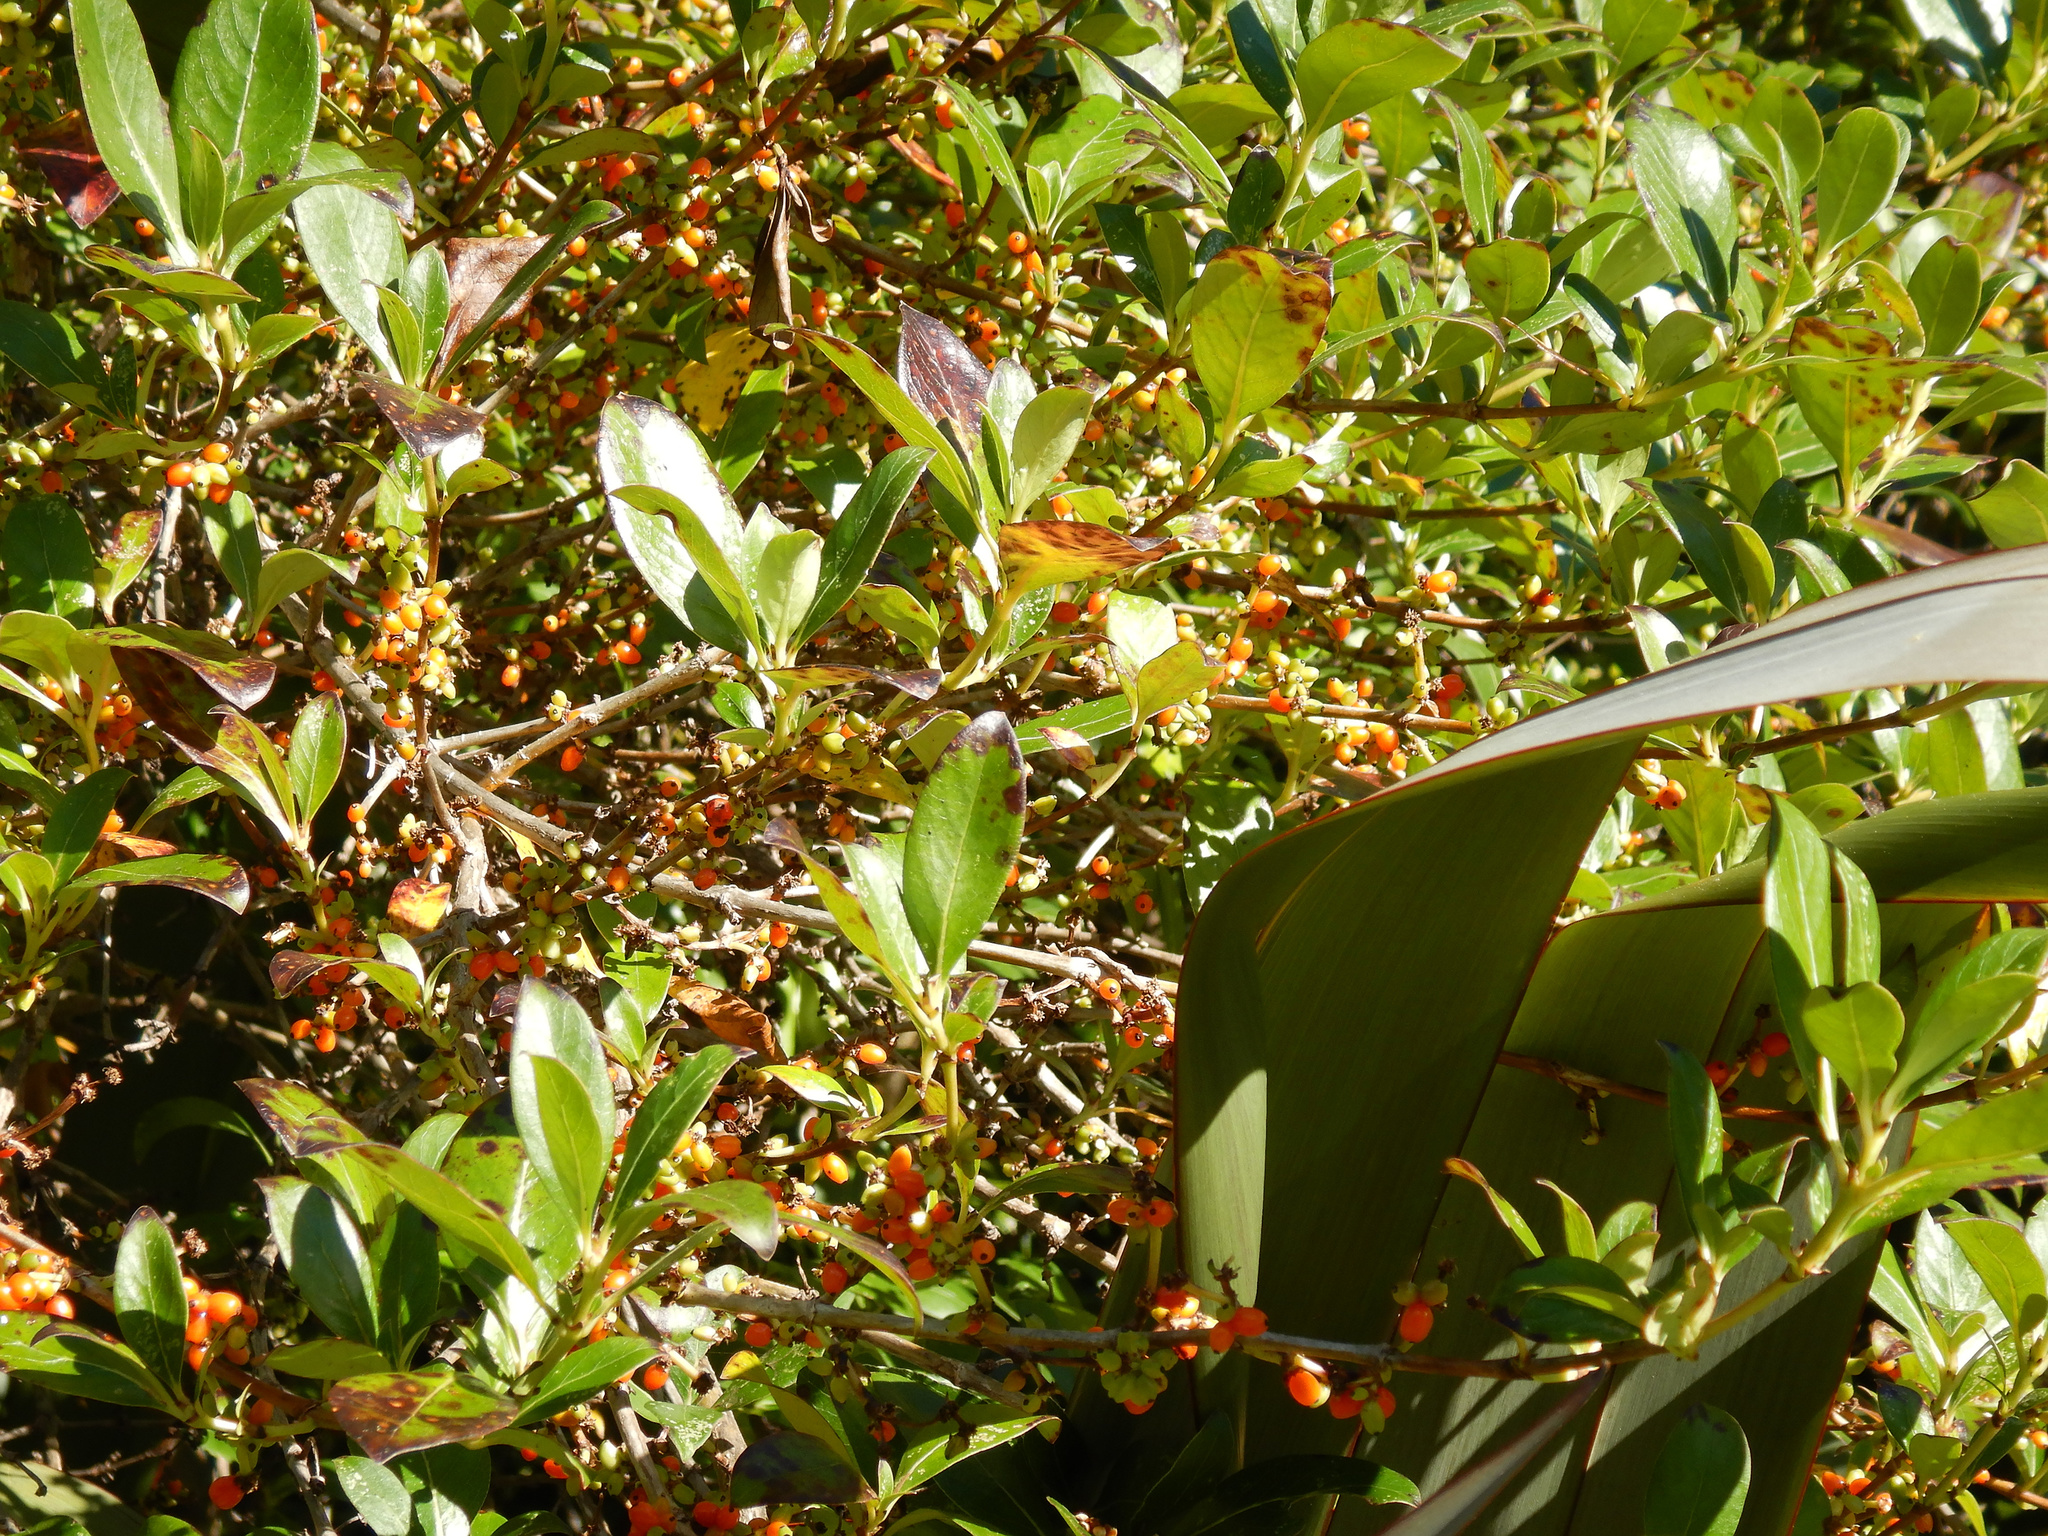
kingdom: Plantae
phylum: Tracheophyta
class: Magnoliopsida
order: Gentianales
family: Rubiaceae
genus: Coprosma
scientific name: Coprosma robusta
